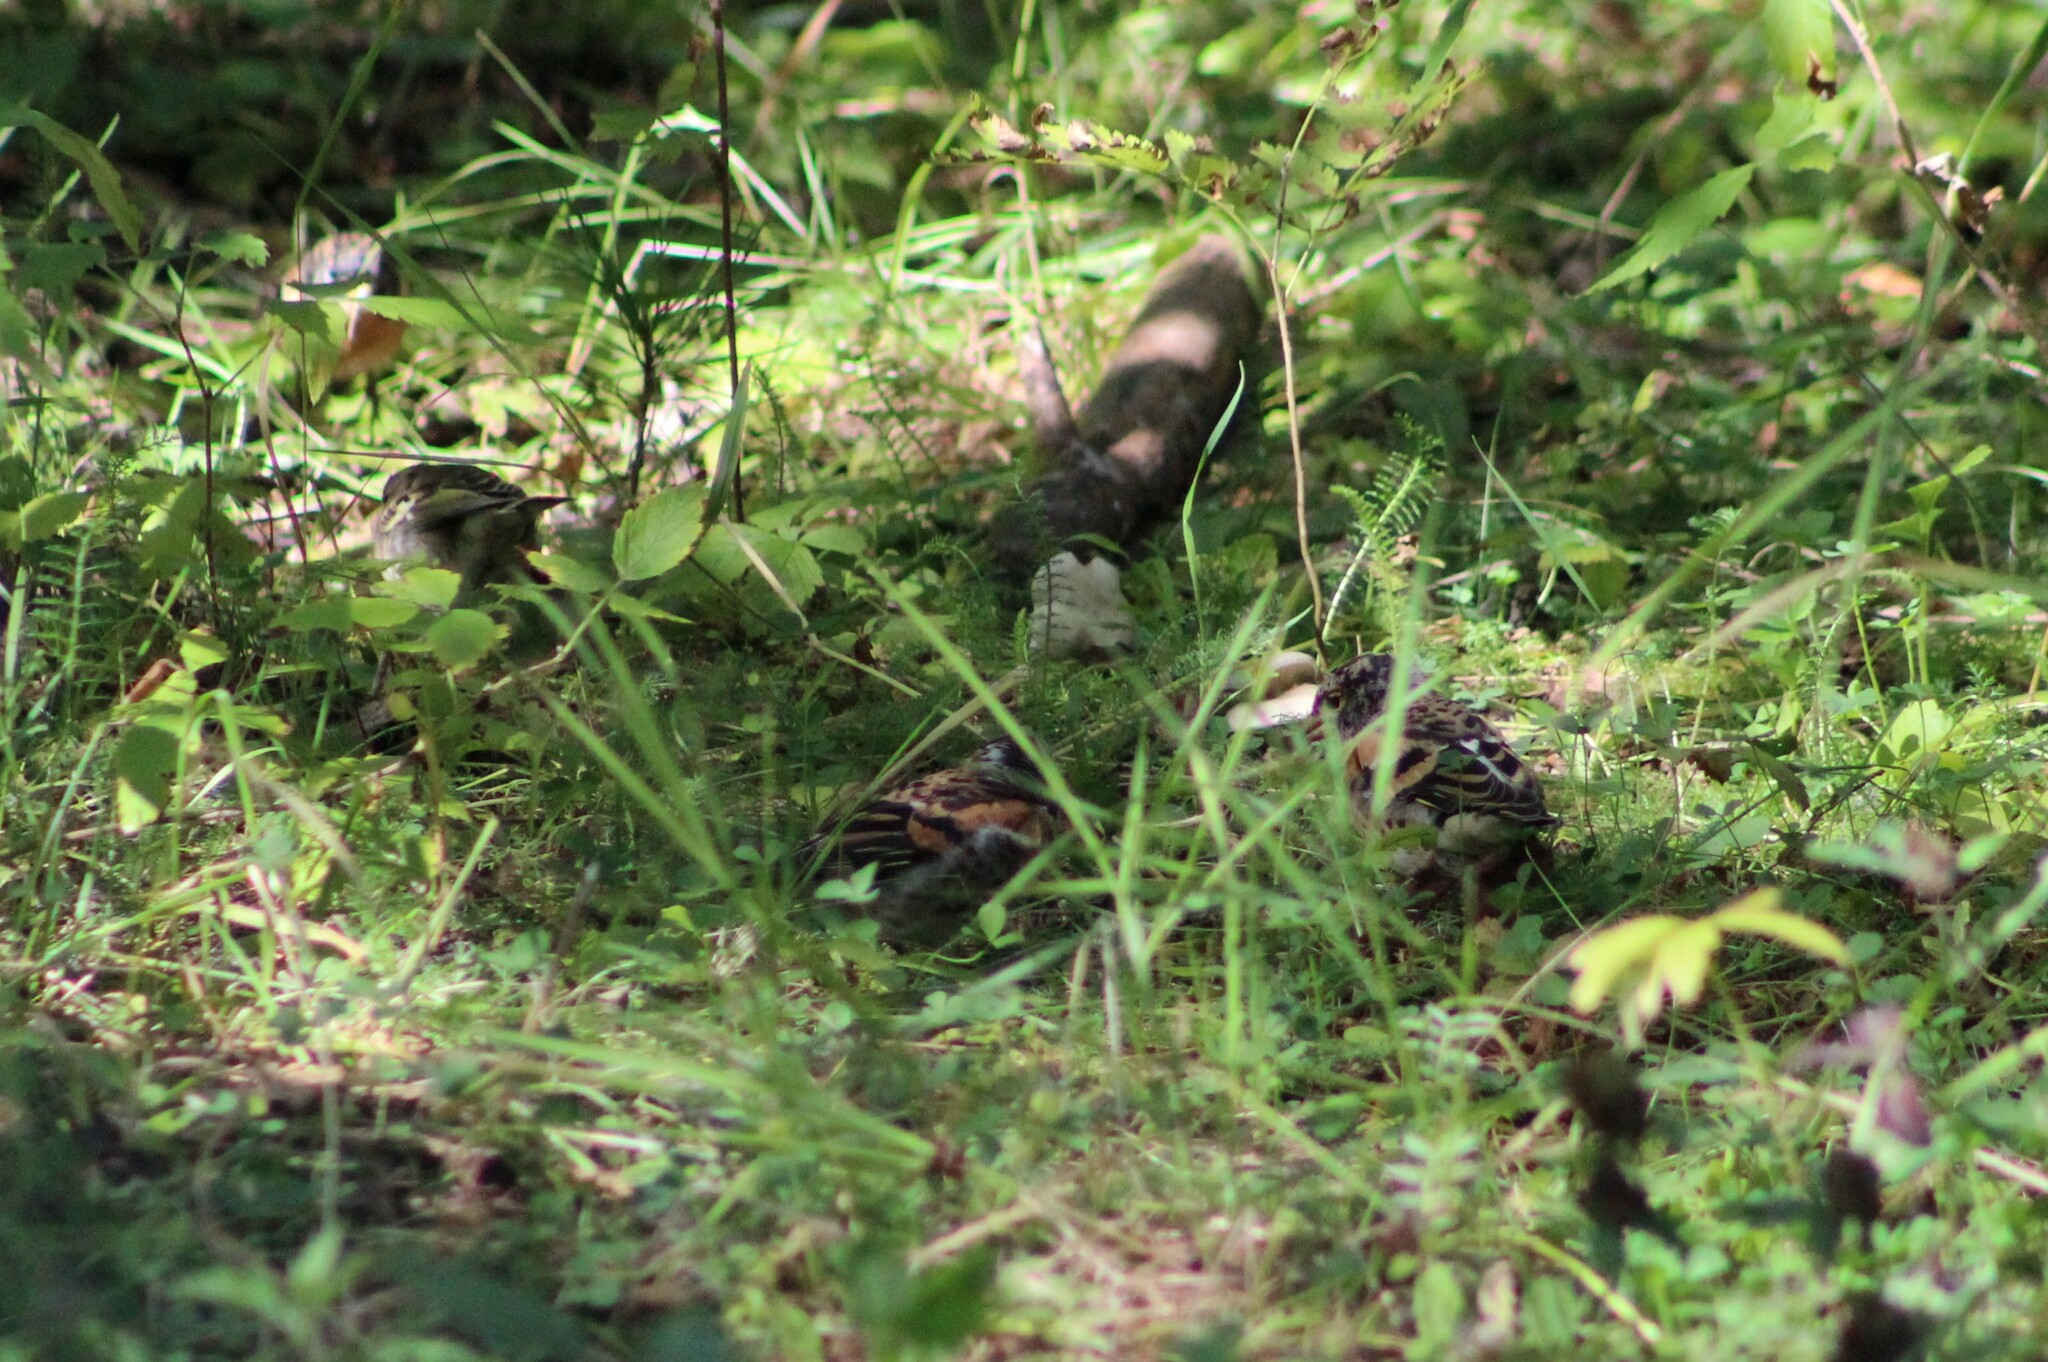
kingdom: Animalia
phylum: Chordata
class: Aves
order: Passeriformes
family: Fringillidae
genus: Fringilla
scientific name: Fringilla montifringilla
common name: Brambling
